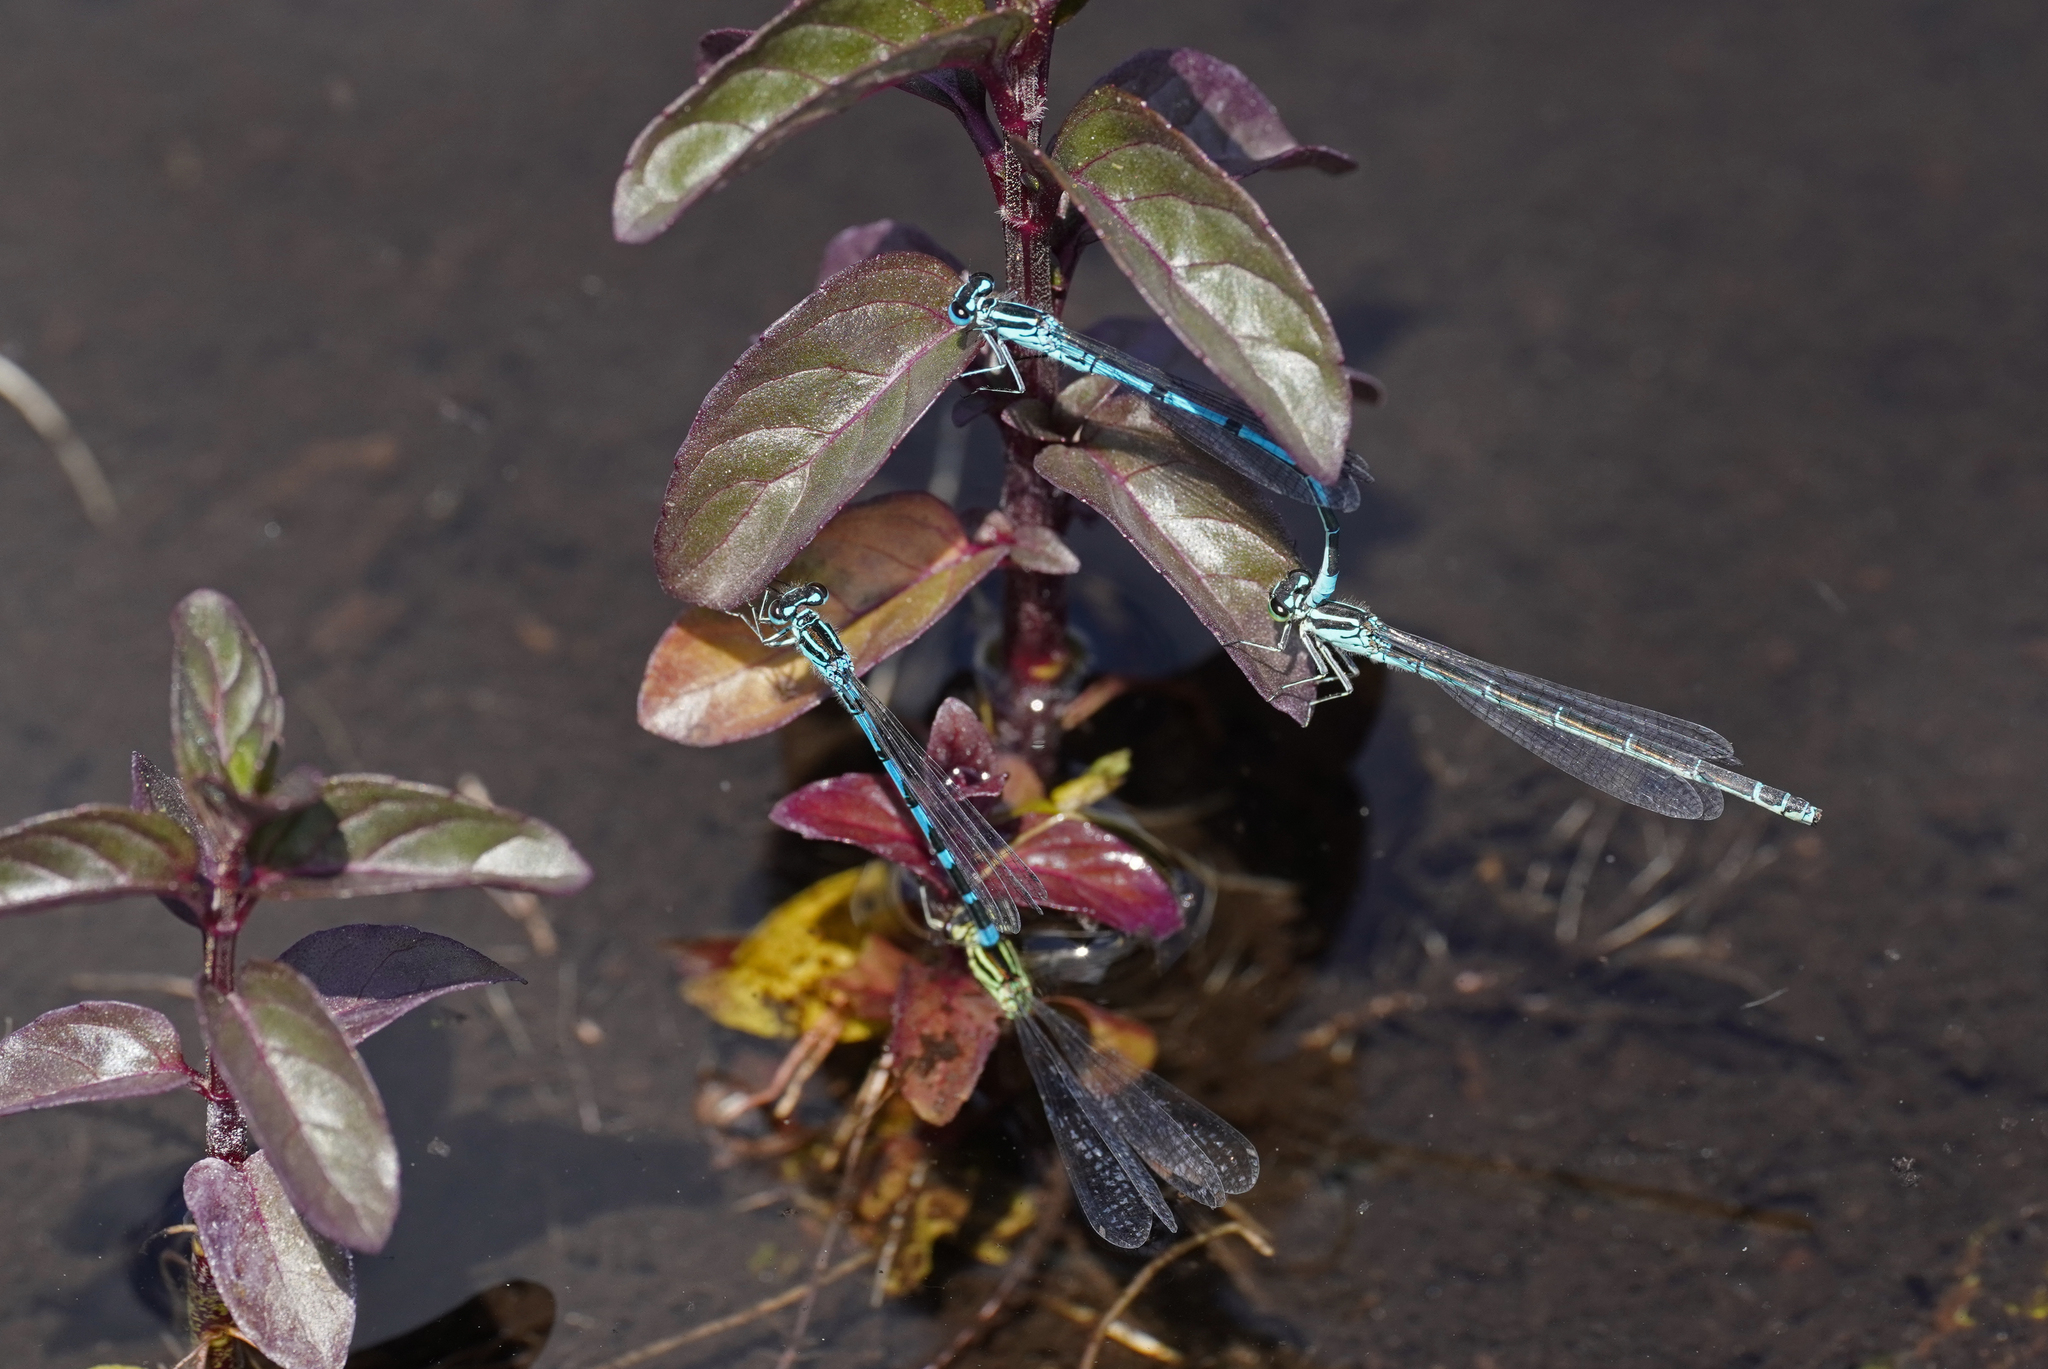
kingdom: Animalia
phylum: Arthropoda
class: Insecta
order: Odonata
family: Coenagrionidae
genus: Coenagrion
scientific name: Coenagrion ornatum
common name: Ornate bluet
